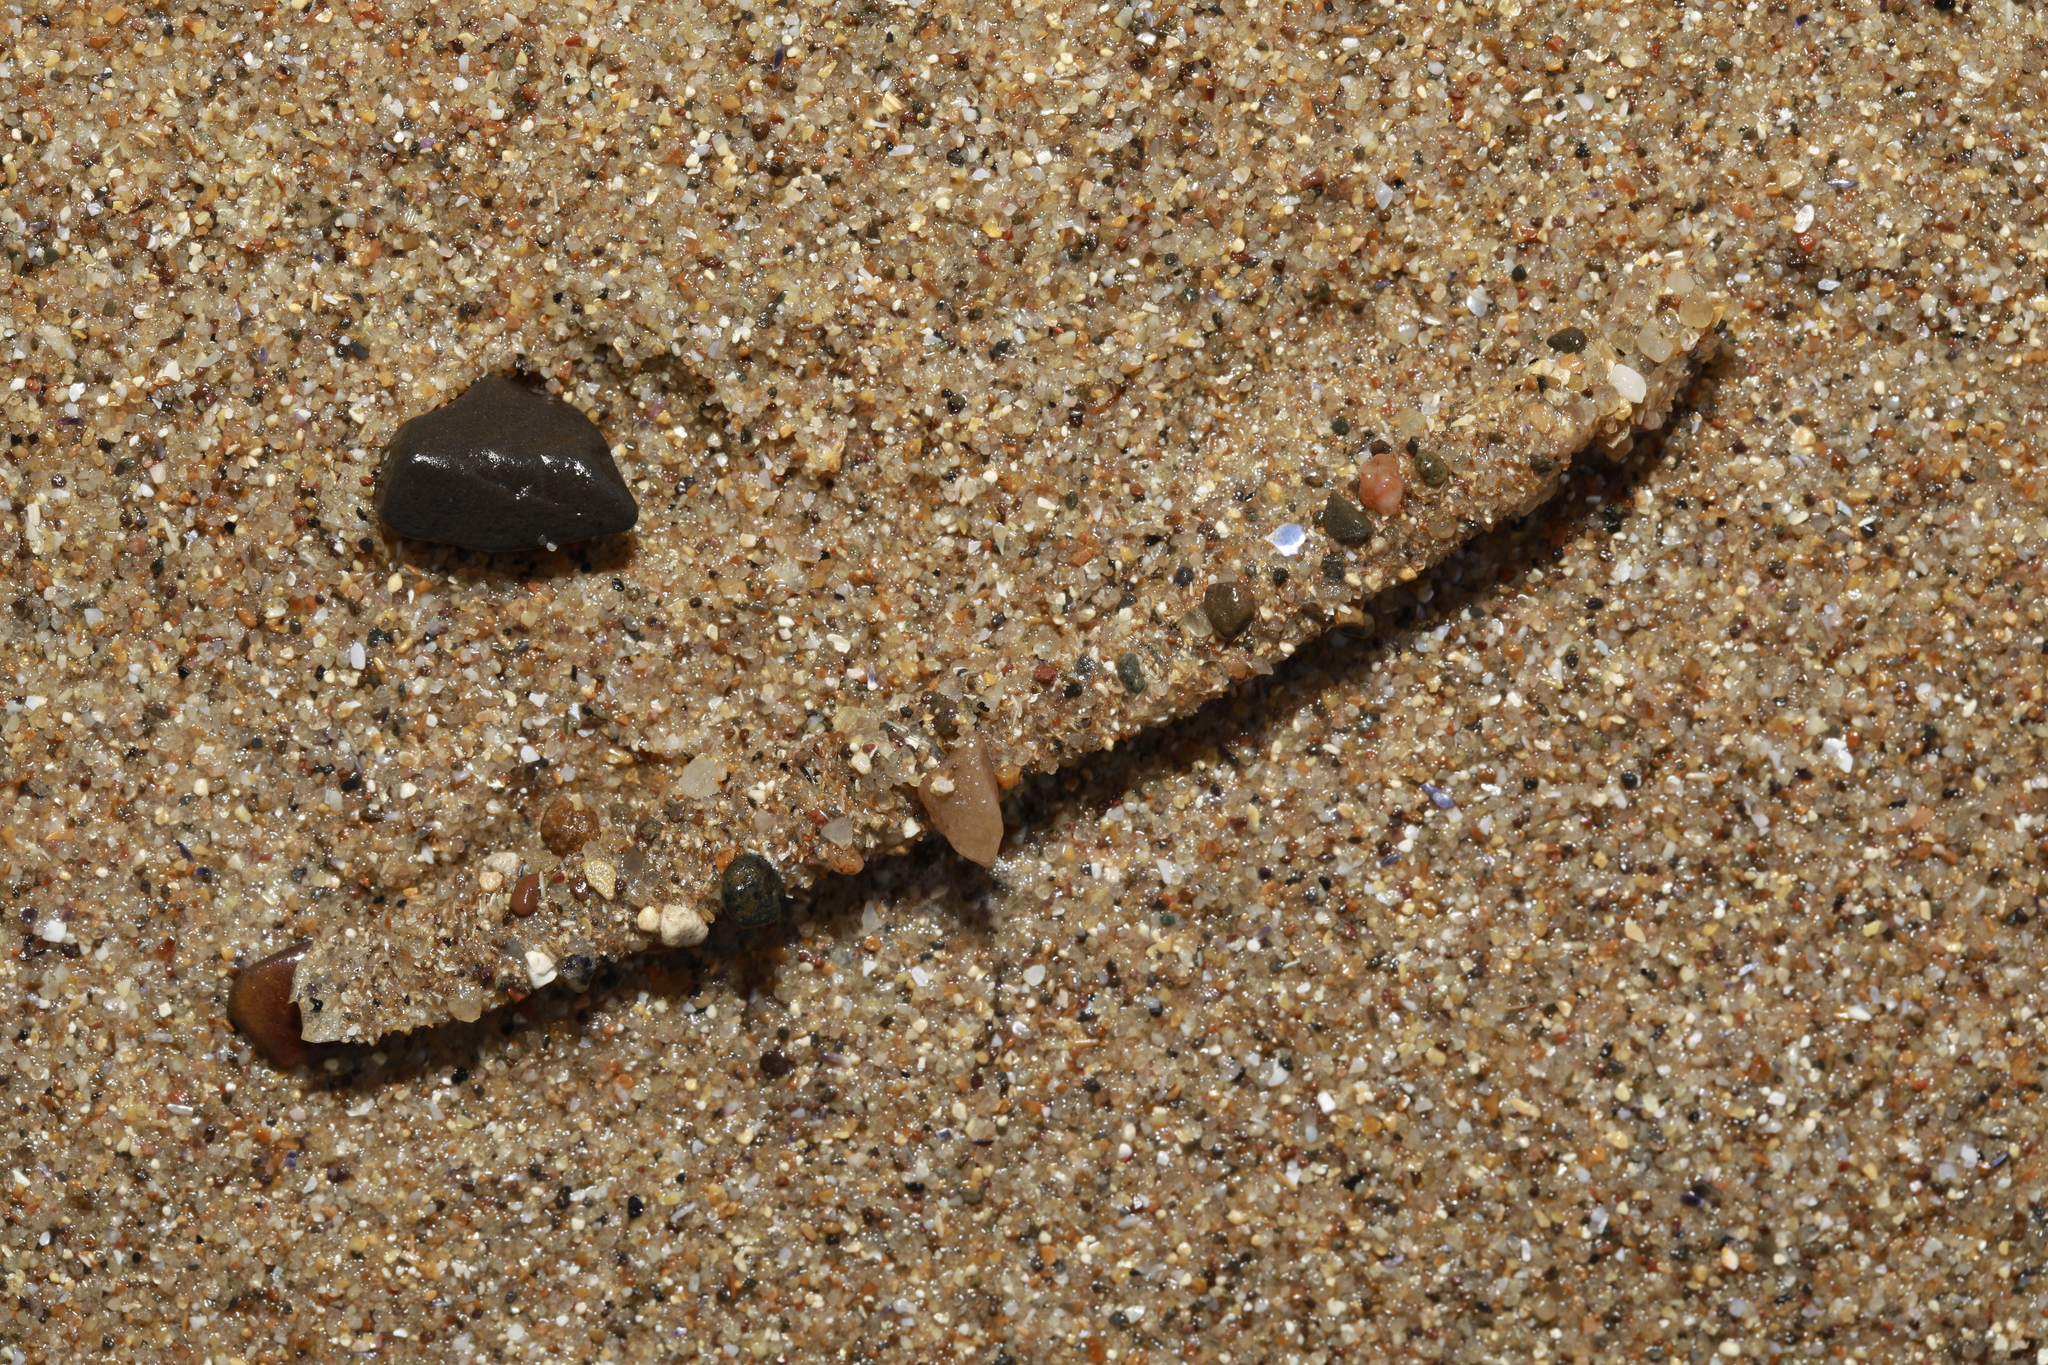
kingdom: Animalia
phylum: Annelida
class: Polychaeta
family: Terebellidae
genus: Lanice
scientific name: Lanice conchilega
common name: Sand mason
